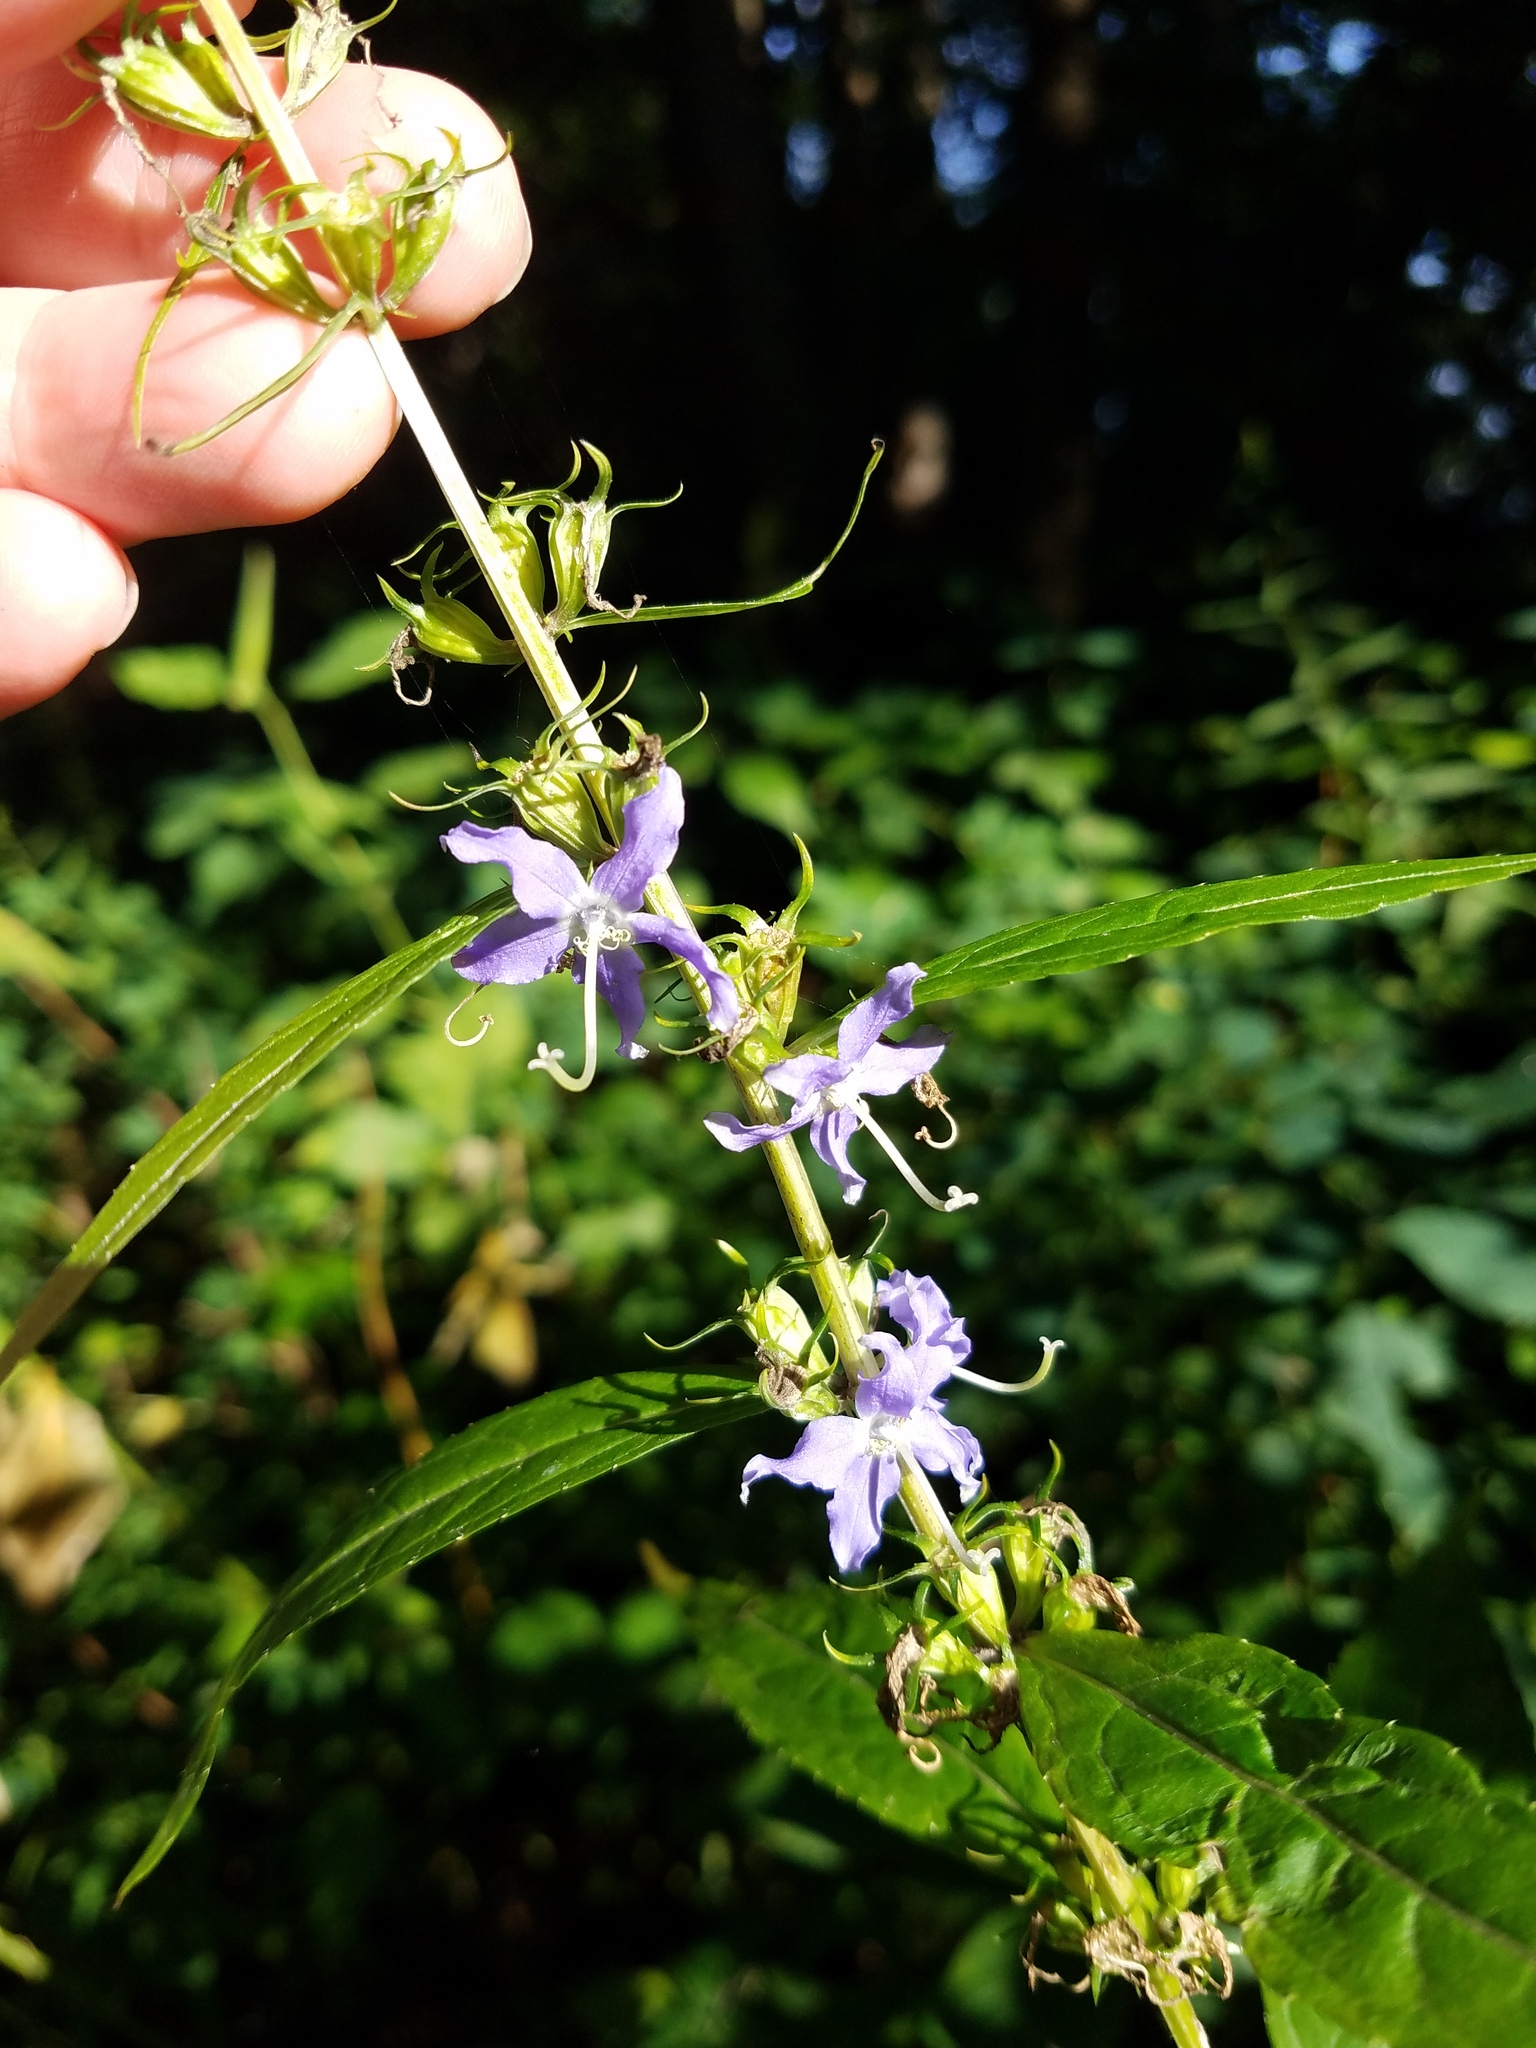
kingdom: Plantae
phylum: Tracheophyta
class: Magnoliopsida
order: Asterales
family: Campanulaceae
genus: Campanulastrum
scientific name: Campanulastrum americanum
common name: American bellflower
